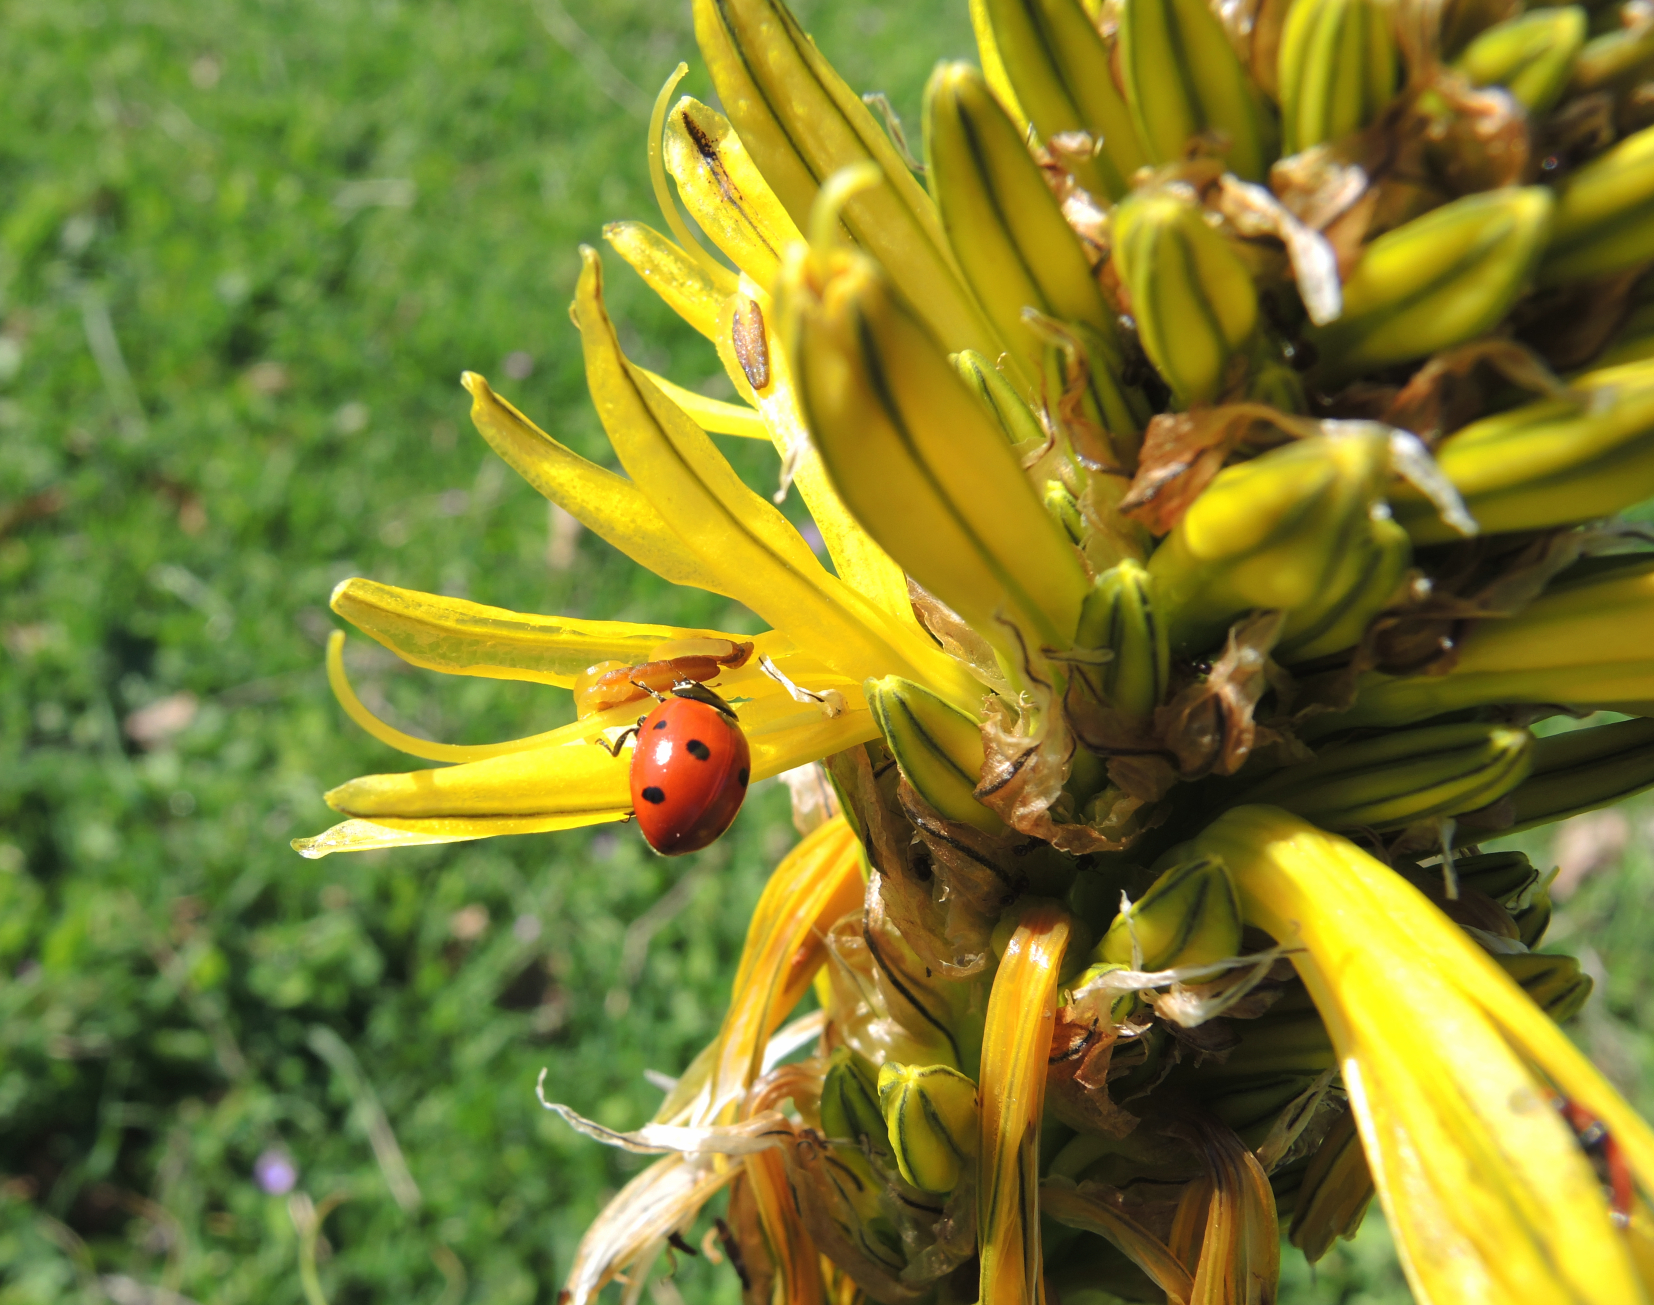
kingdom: Animalia
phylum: Arthropoda
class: Insecta
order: Coleoptera
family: Coccinellidae
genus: Coccinella
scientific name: Coccinella septempunctata
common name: Sevenspotted lady beetle
